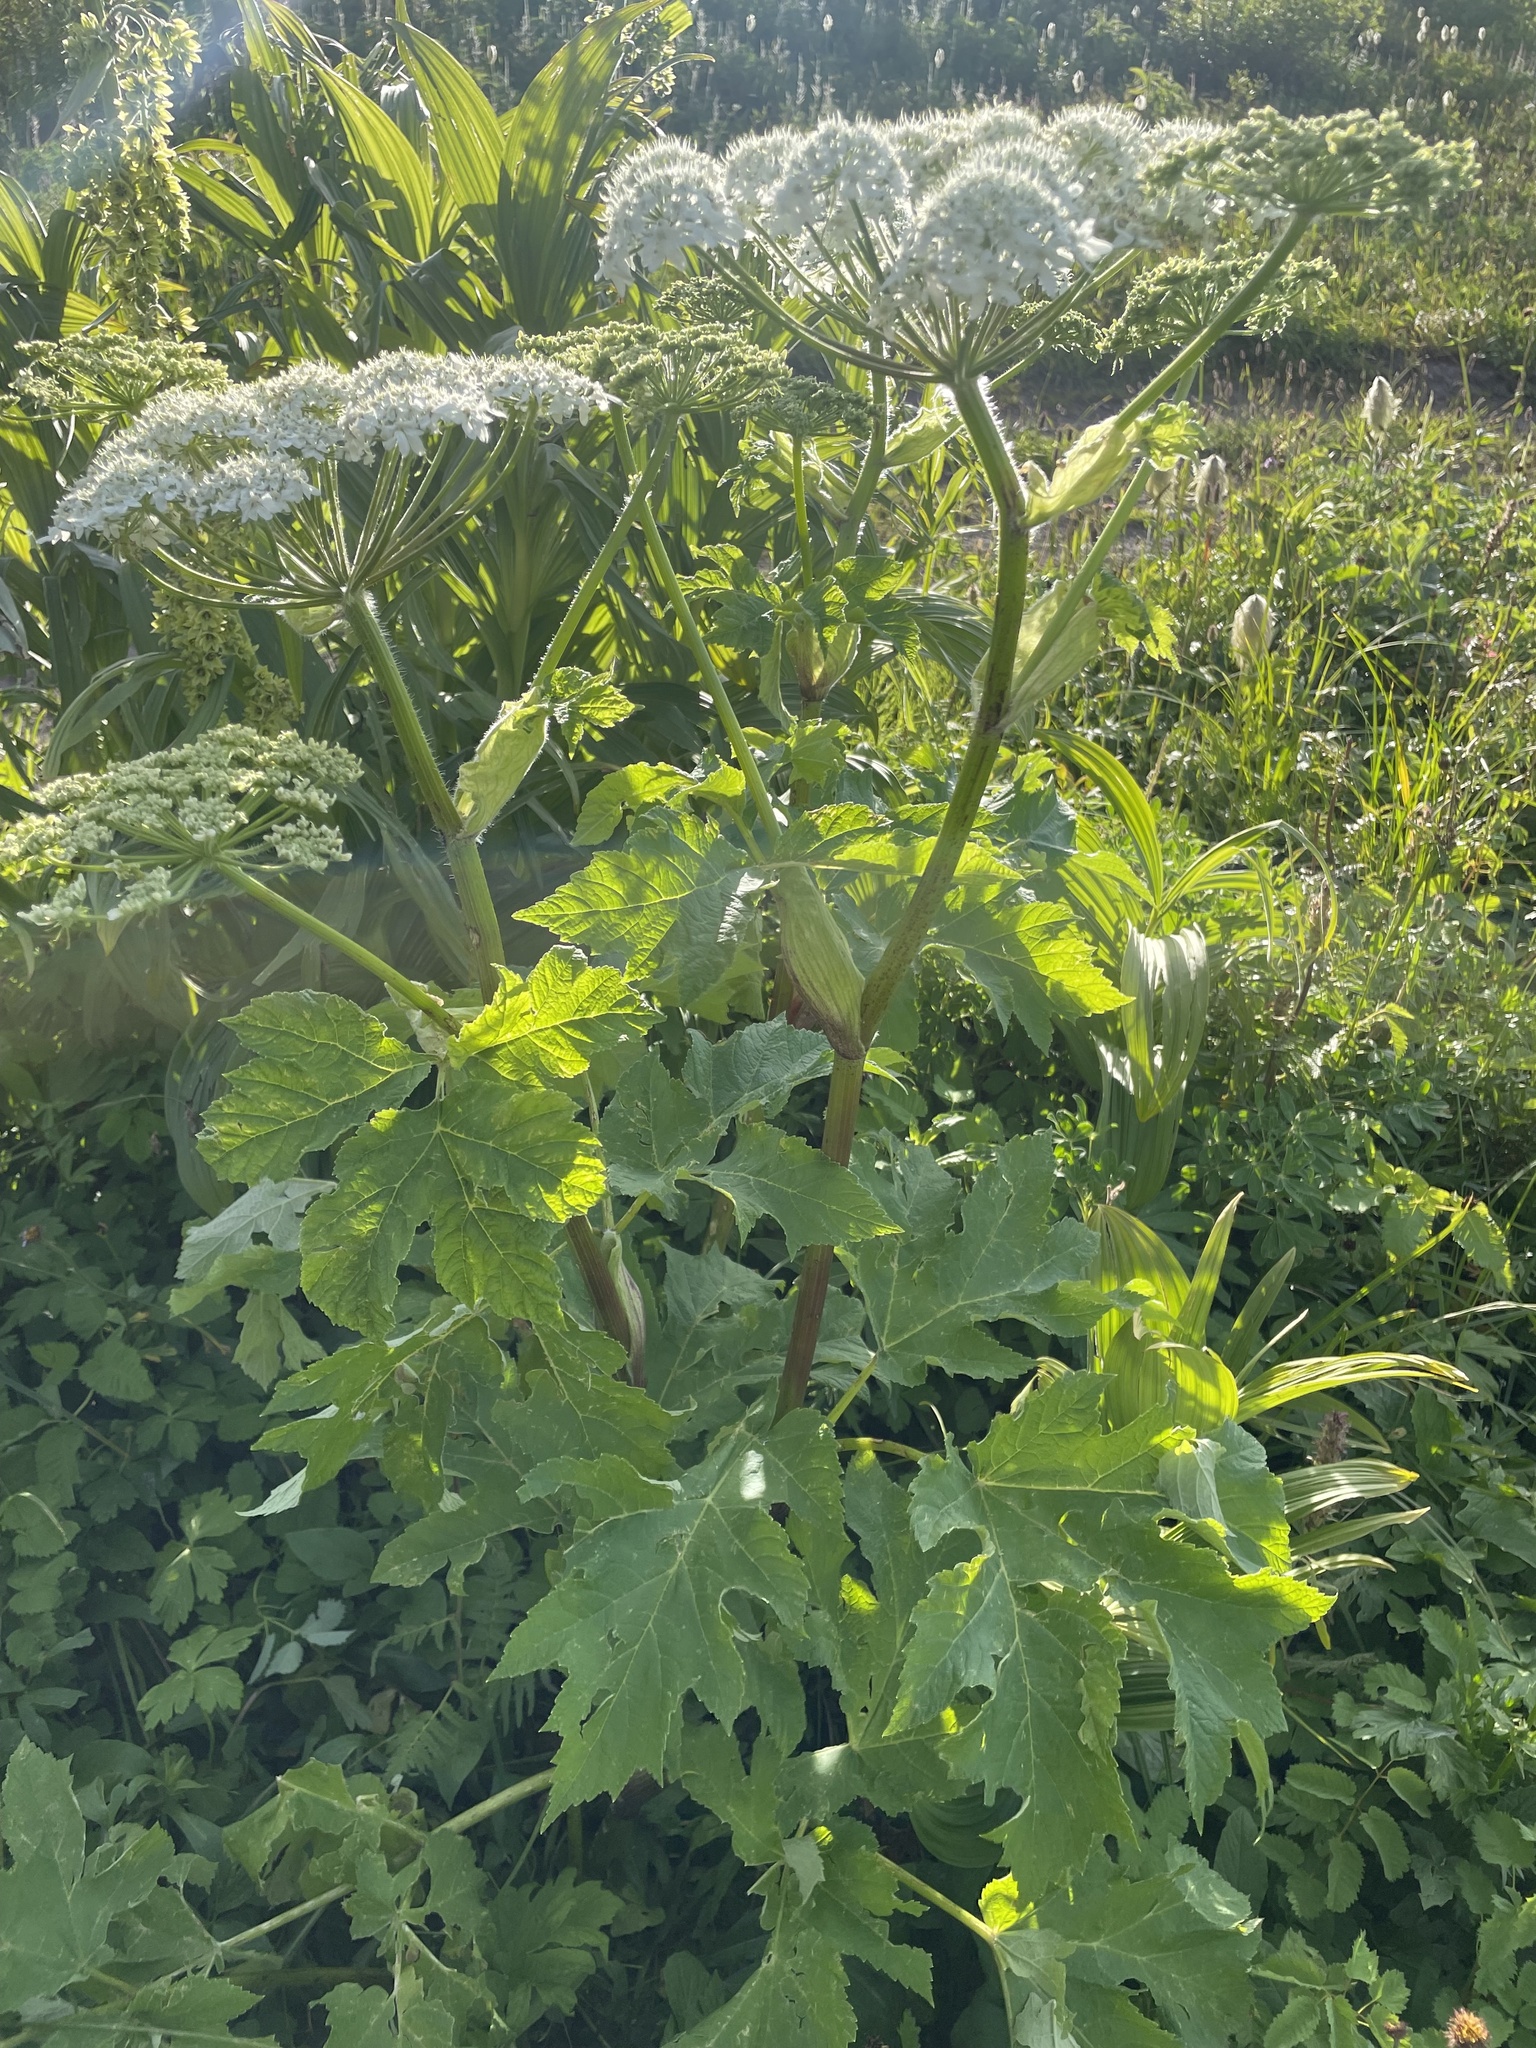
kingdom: Plantae
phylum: Tracheophyta
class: Magnoliopsida
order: Apiales
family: Apiaceae
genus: Heracleum
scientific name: Heracleum maximum
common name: American cow parsnip
